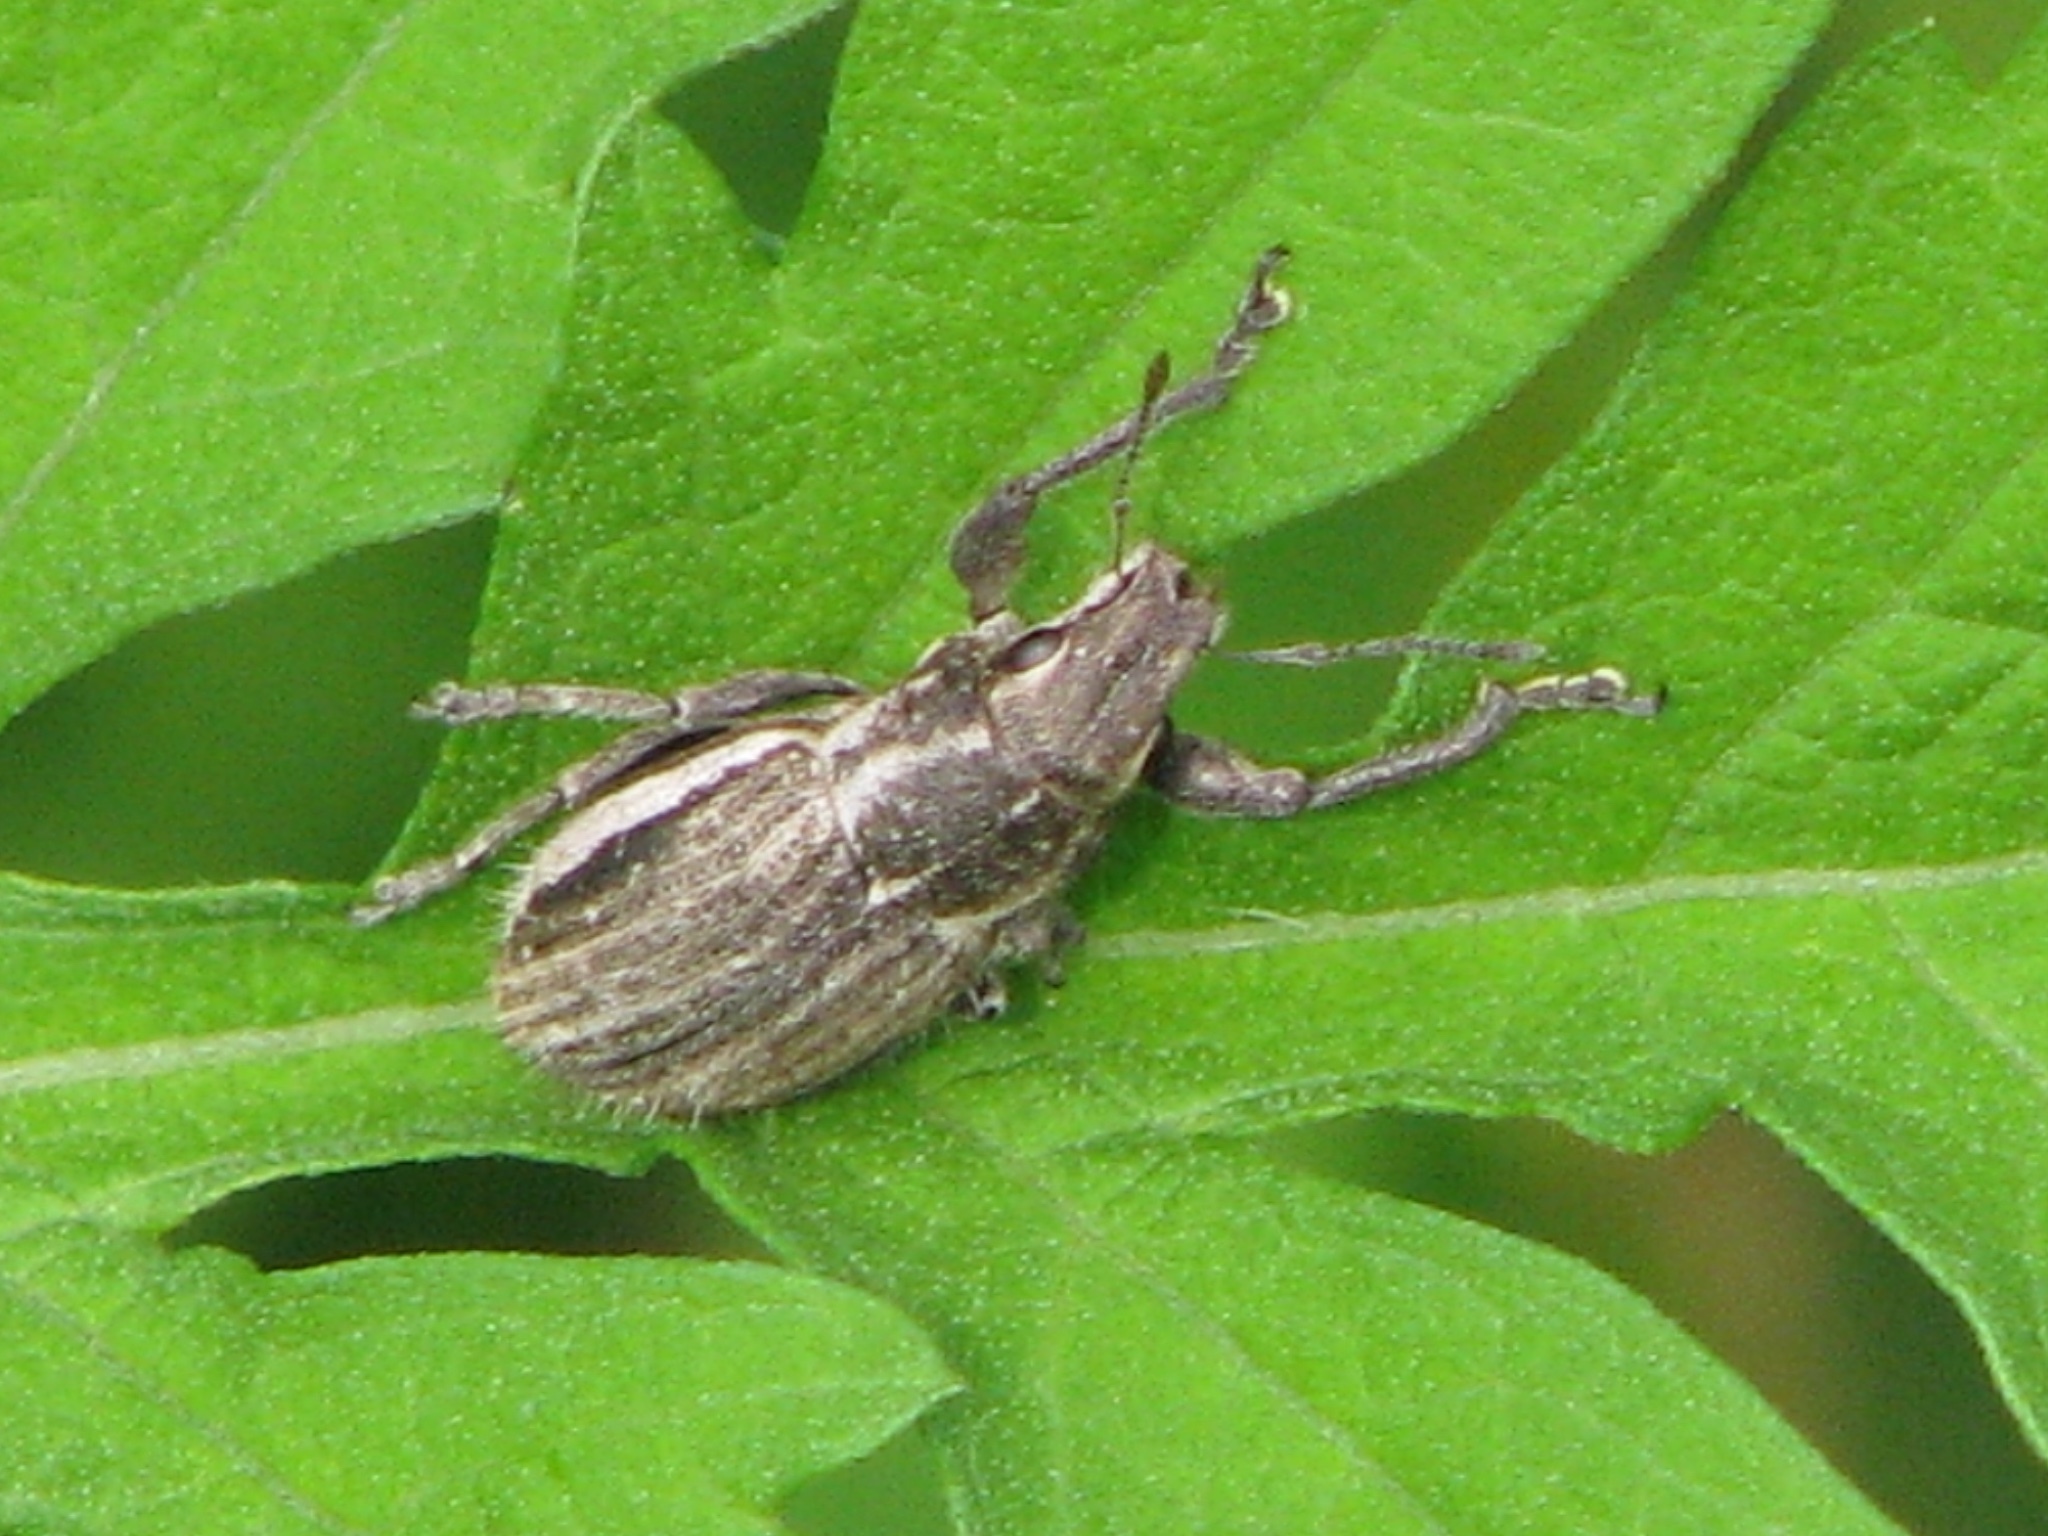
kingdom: Animalia
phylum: Arthropoda
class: Insecta
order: Coleoptera
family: Curculionidae
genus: Naupactus
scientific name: Naupactus leucoloma
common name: Whitefringed beetle
